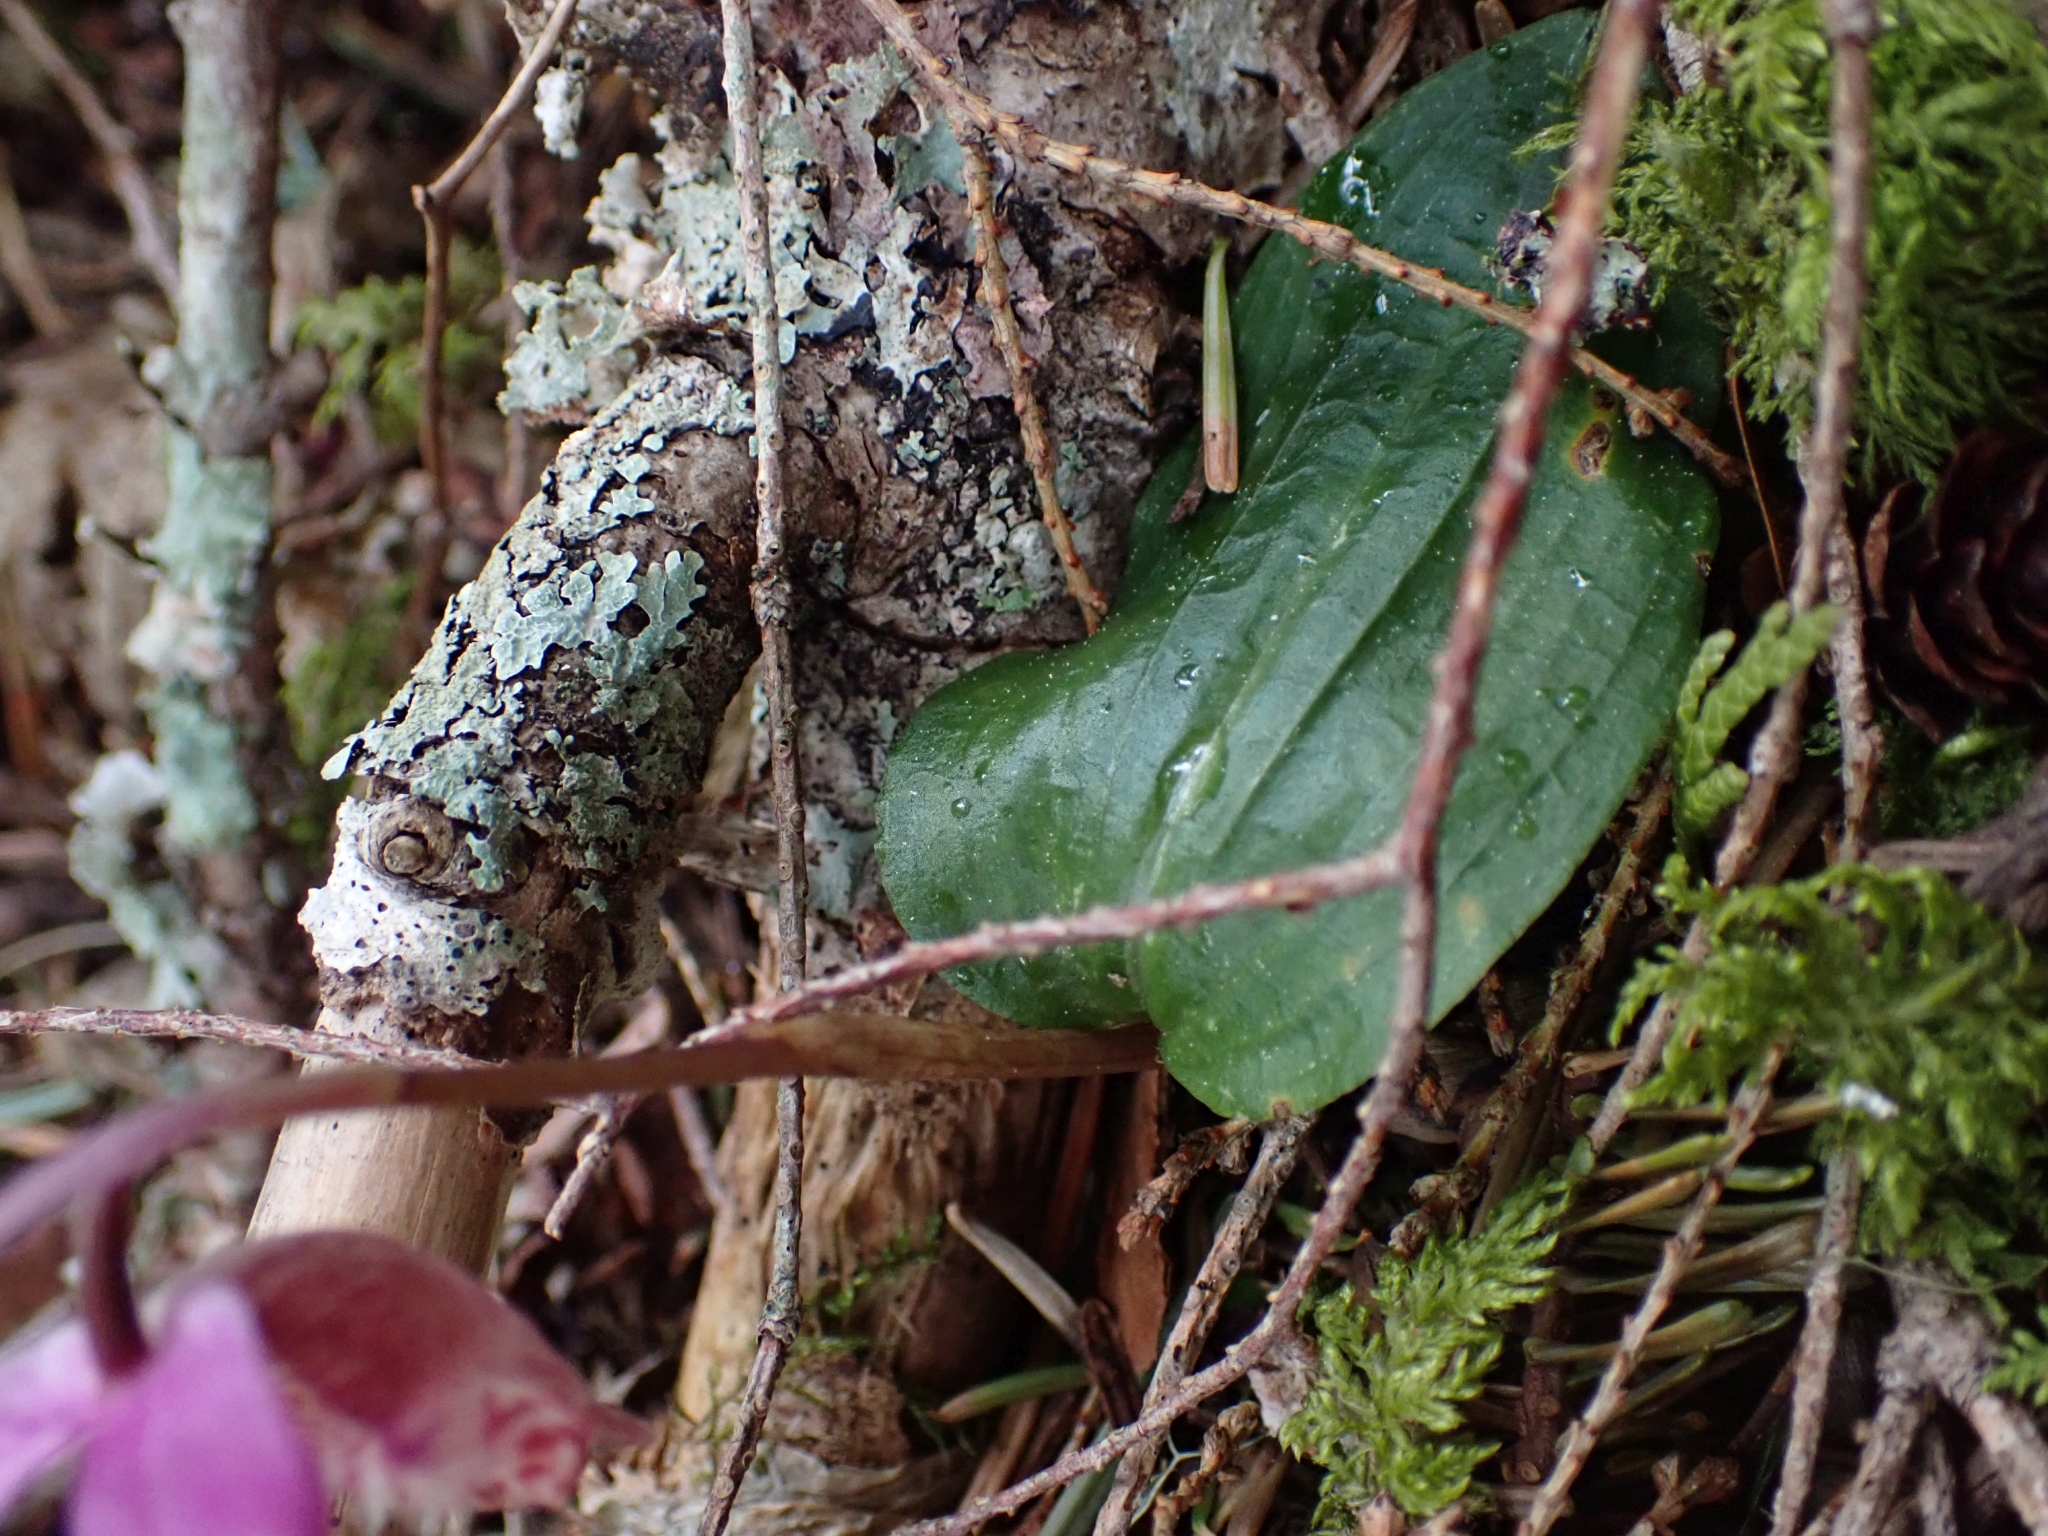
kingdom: Plantae
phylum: Tracheophyta
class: Liliopsida
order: Asparagales
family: Orchidaceae
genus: Calypso
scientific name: Calypso bulbosa
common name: Calypso
